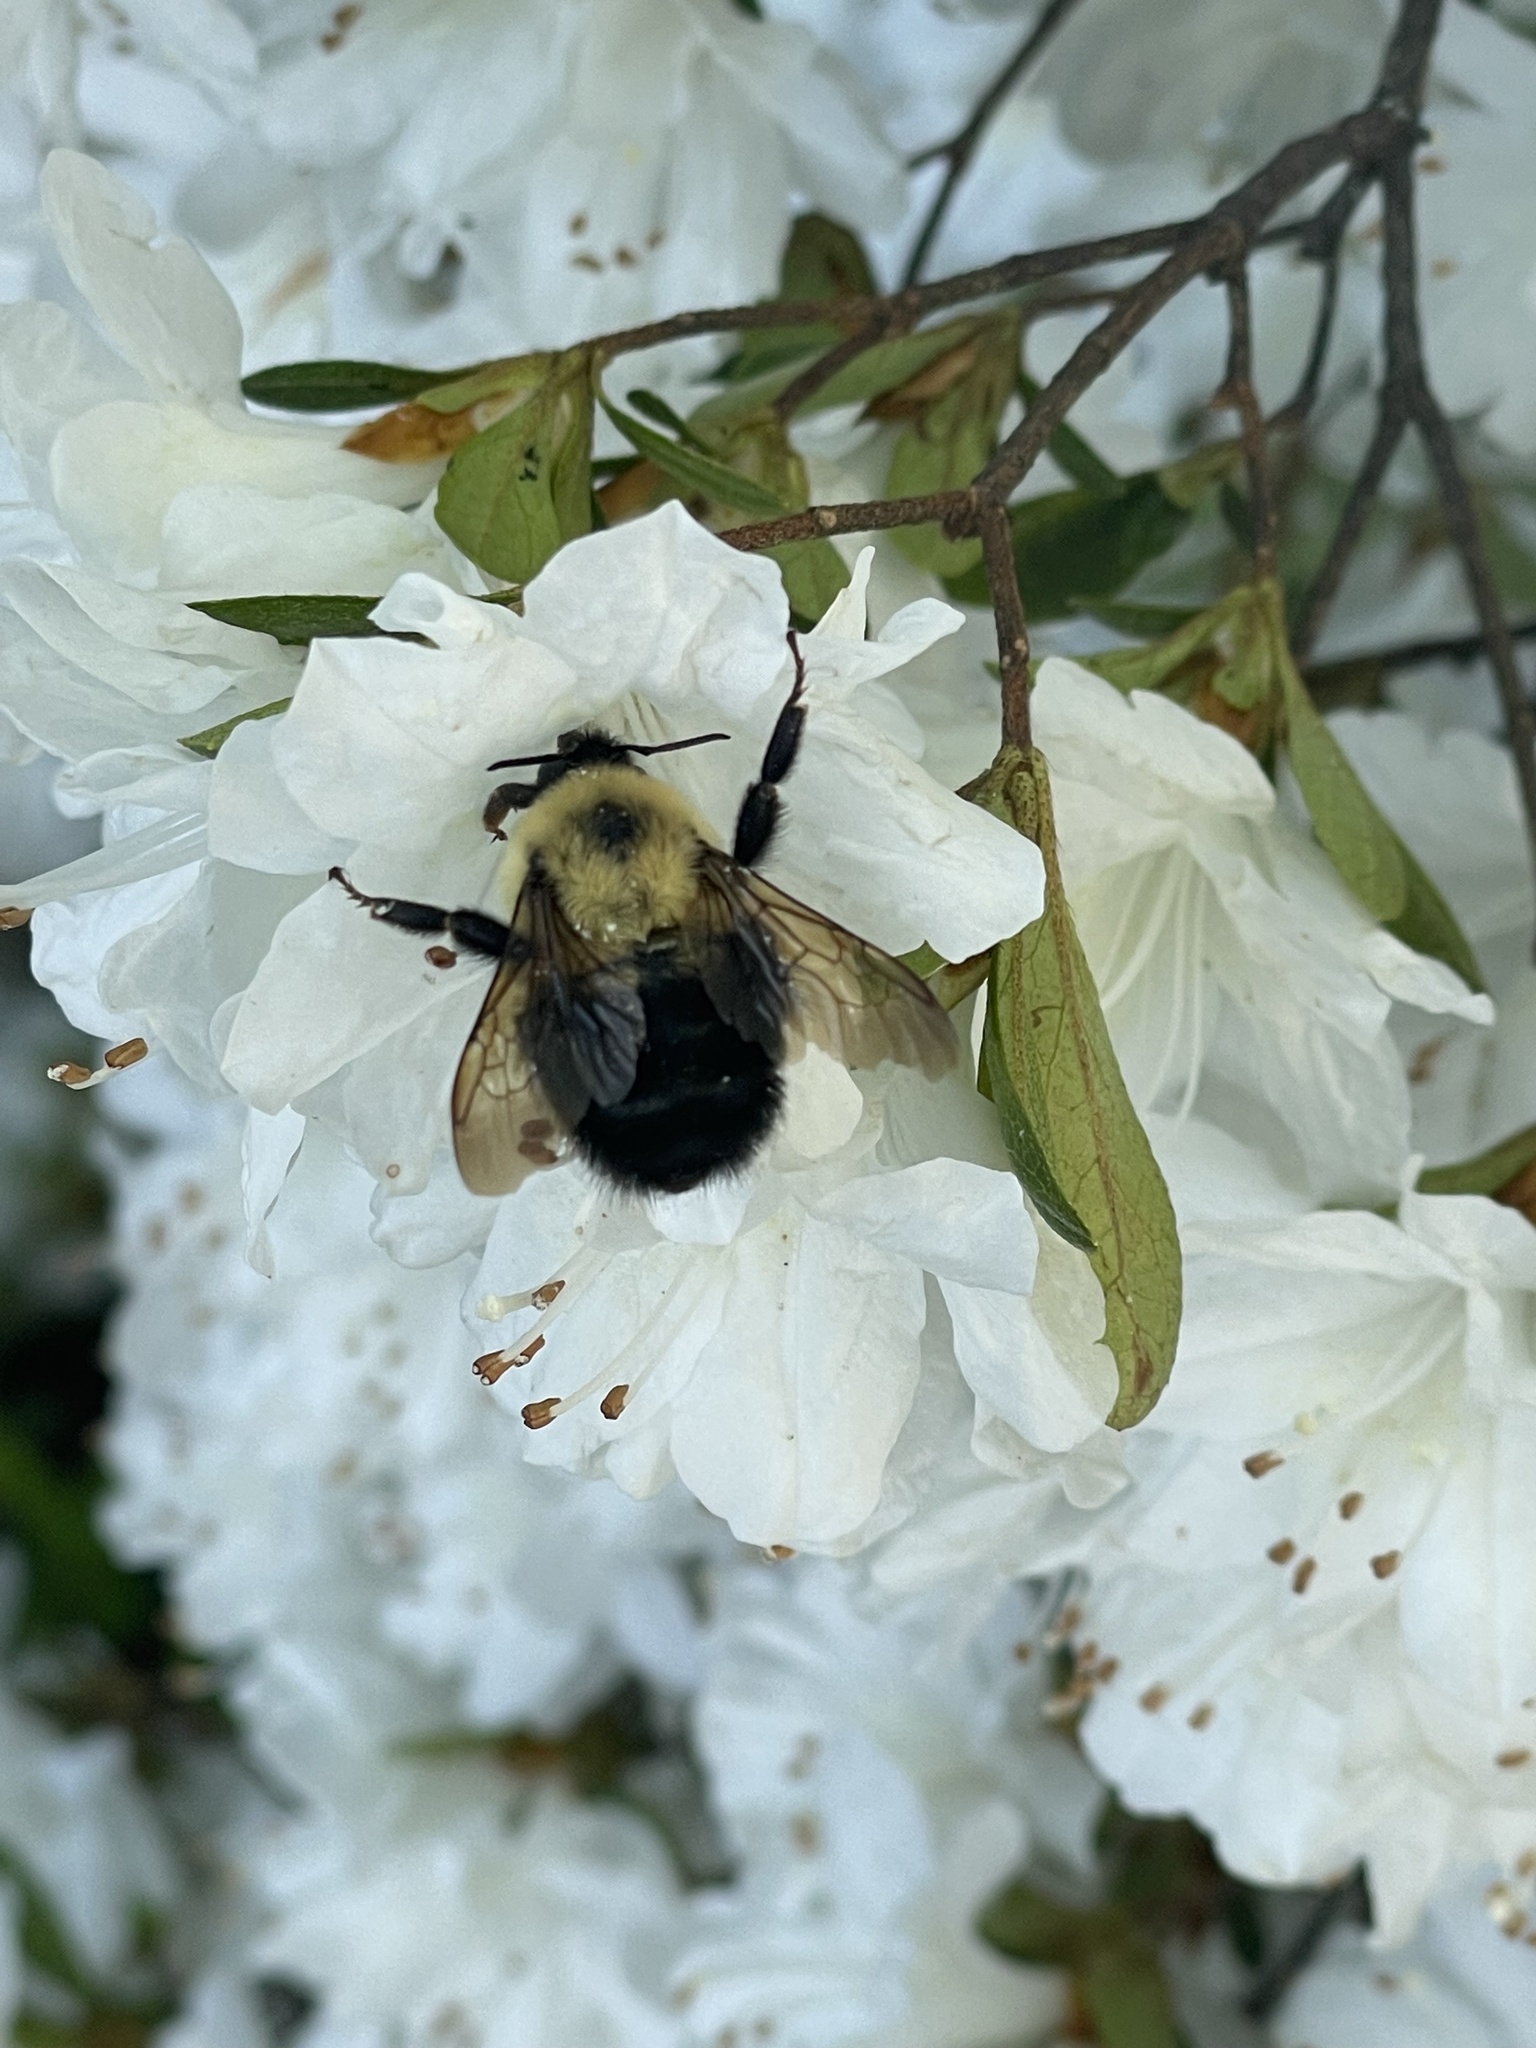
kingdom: Animalia
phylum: Arthropoda
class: Insecta
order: Hymenoptera
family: Apidae
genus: Bombus
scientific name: Bombus bimaculatus
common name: Two-spotted bumble bee
